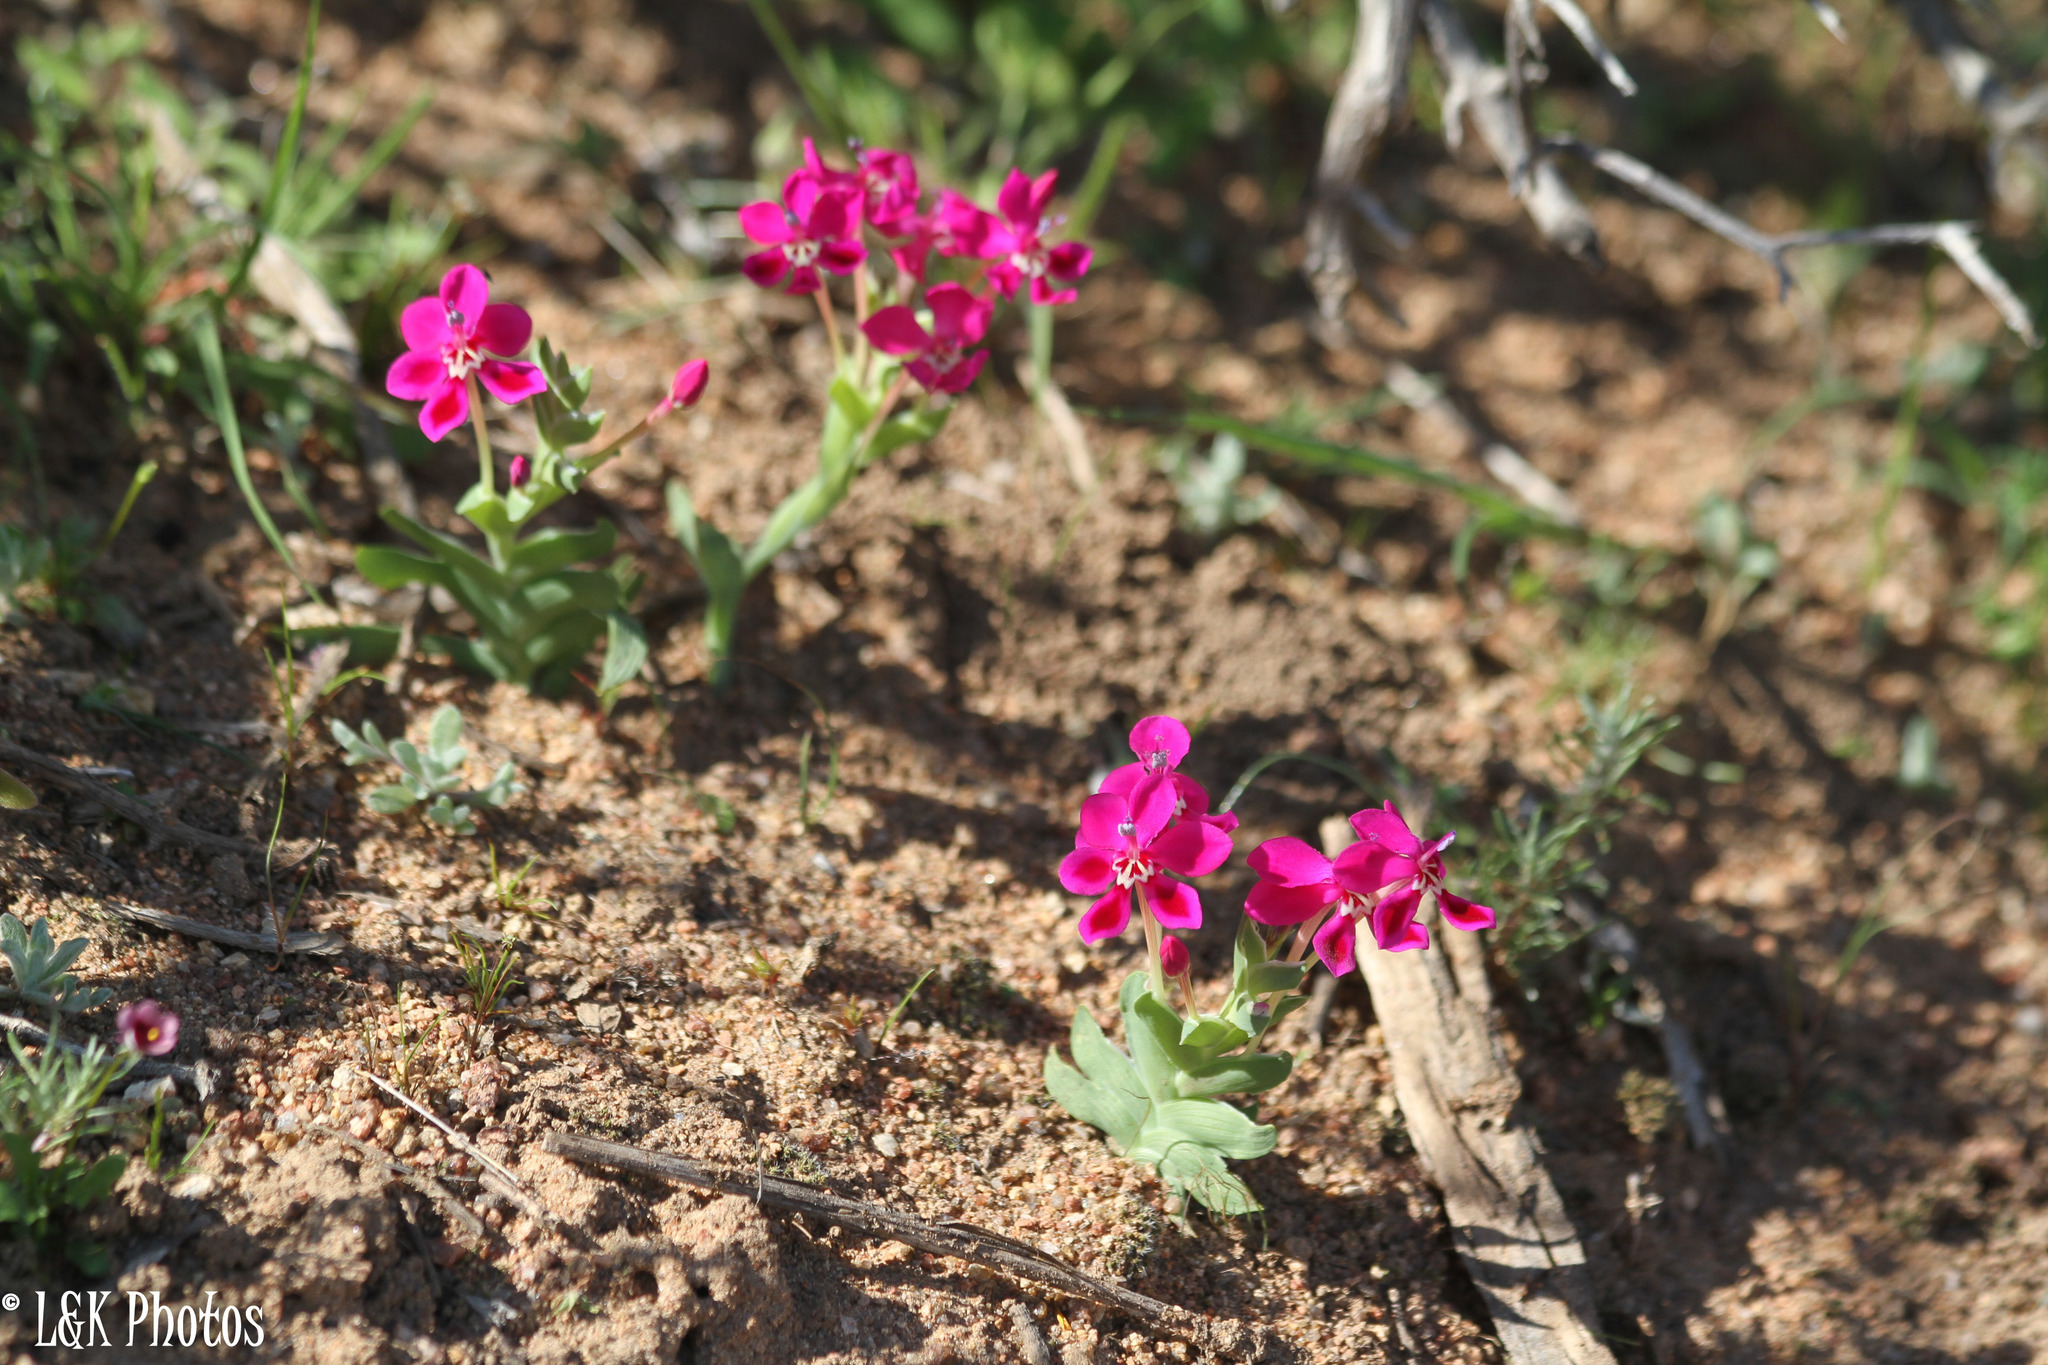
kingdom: Plantae
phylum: Tracheophyta
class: Liliopsida
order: Asparagales
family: Iridaceae
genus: Lapeirousia
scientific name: Lapeirousia silenoides
